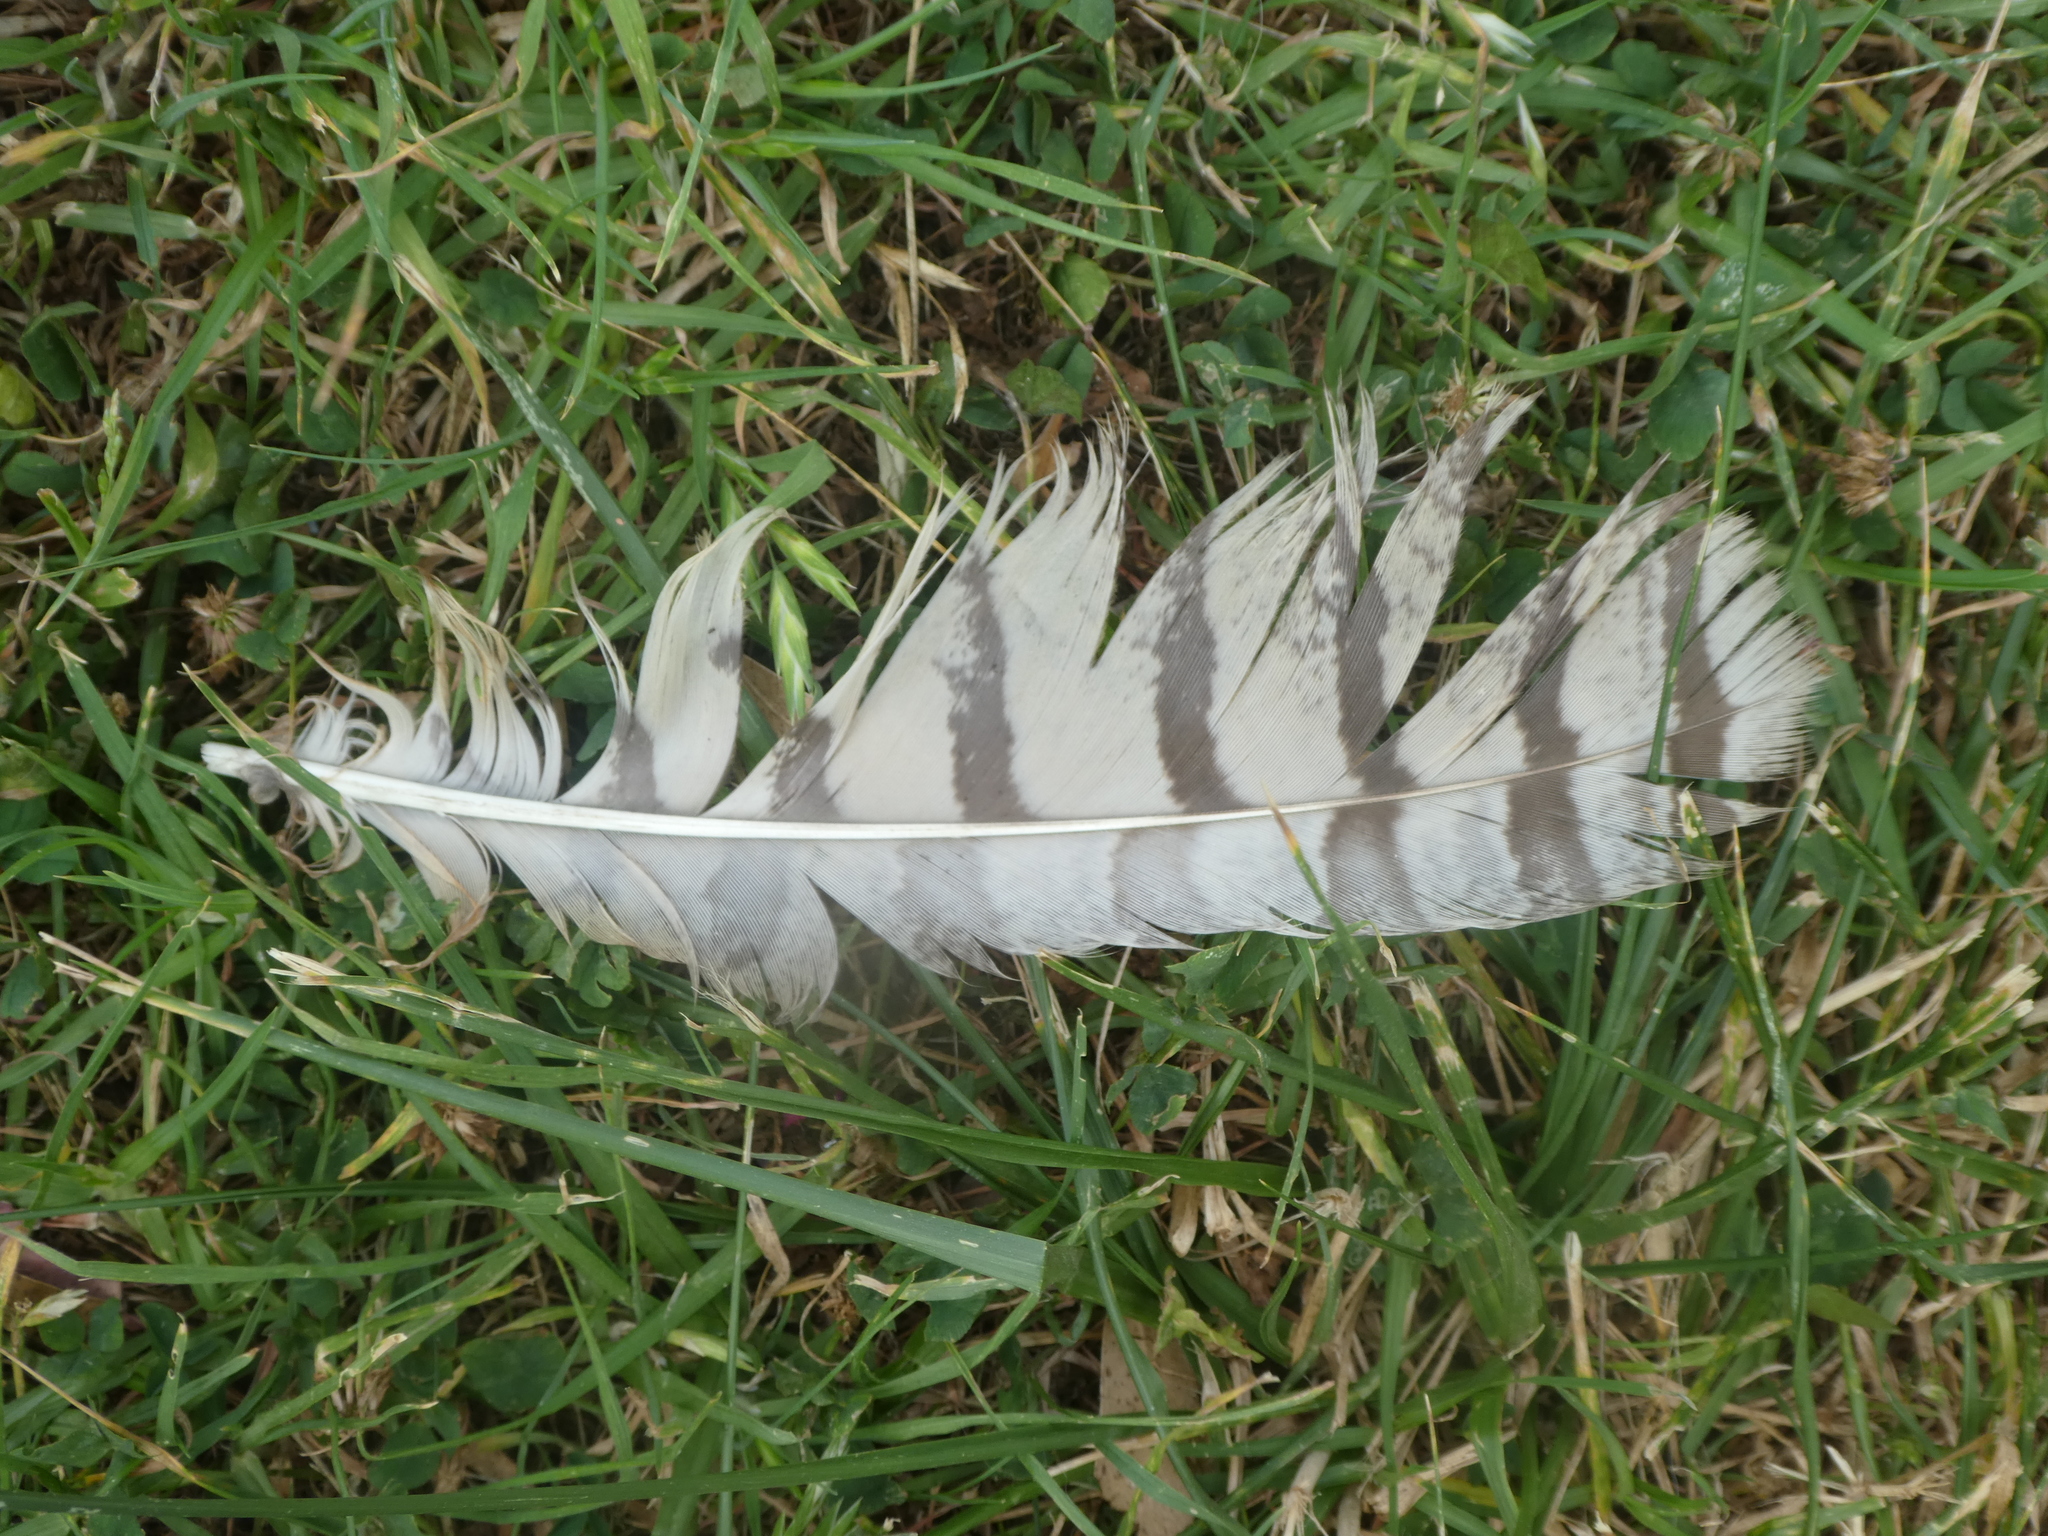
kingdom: Animalia
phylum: Chordata
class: Aves
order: Strigiformes
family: Strigidae
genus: Bubo
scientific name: Bubo virginianus
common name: Great horned owl
